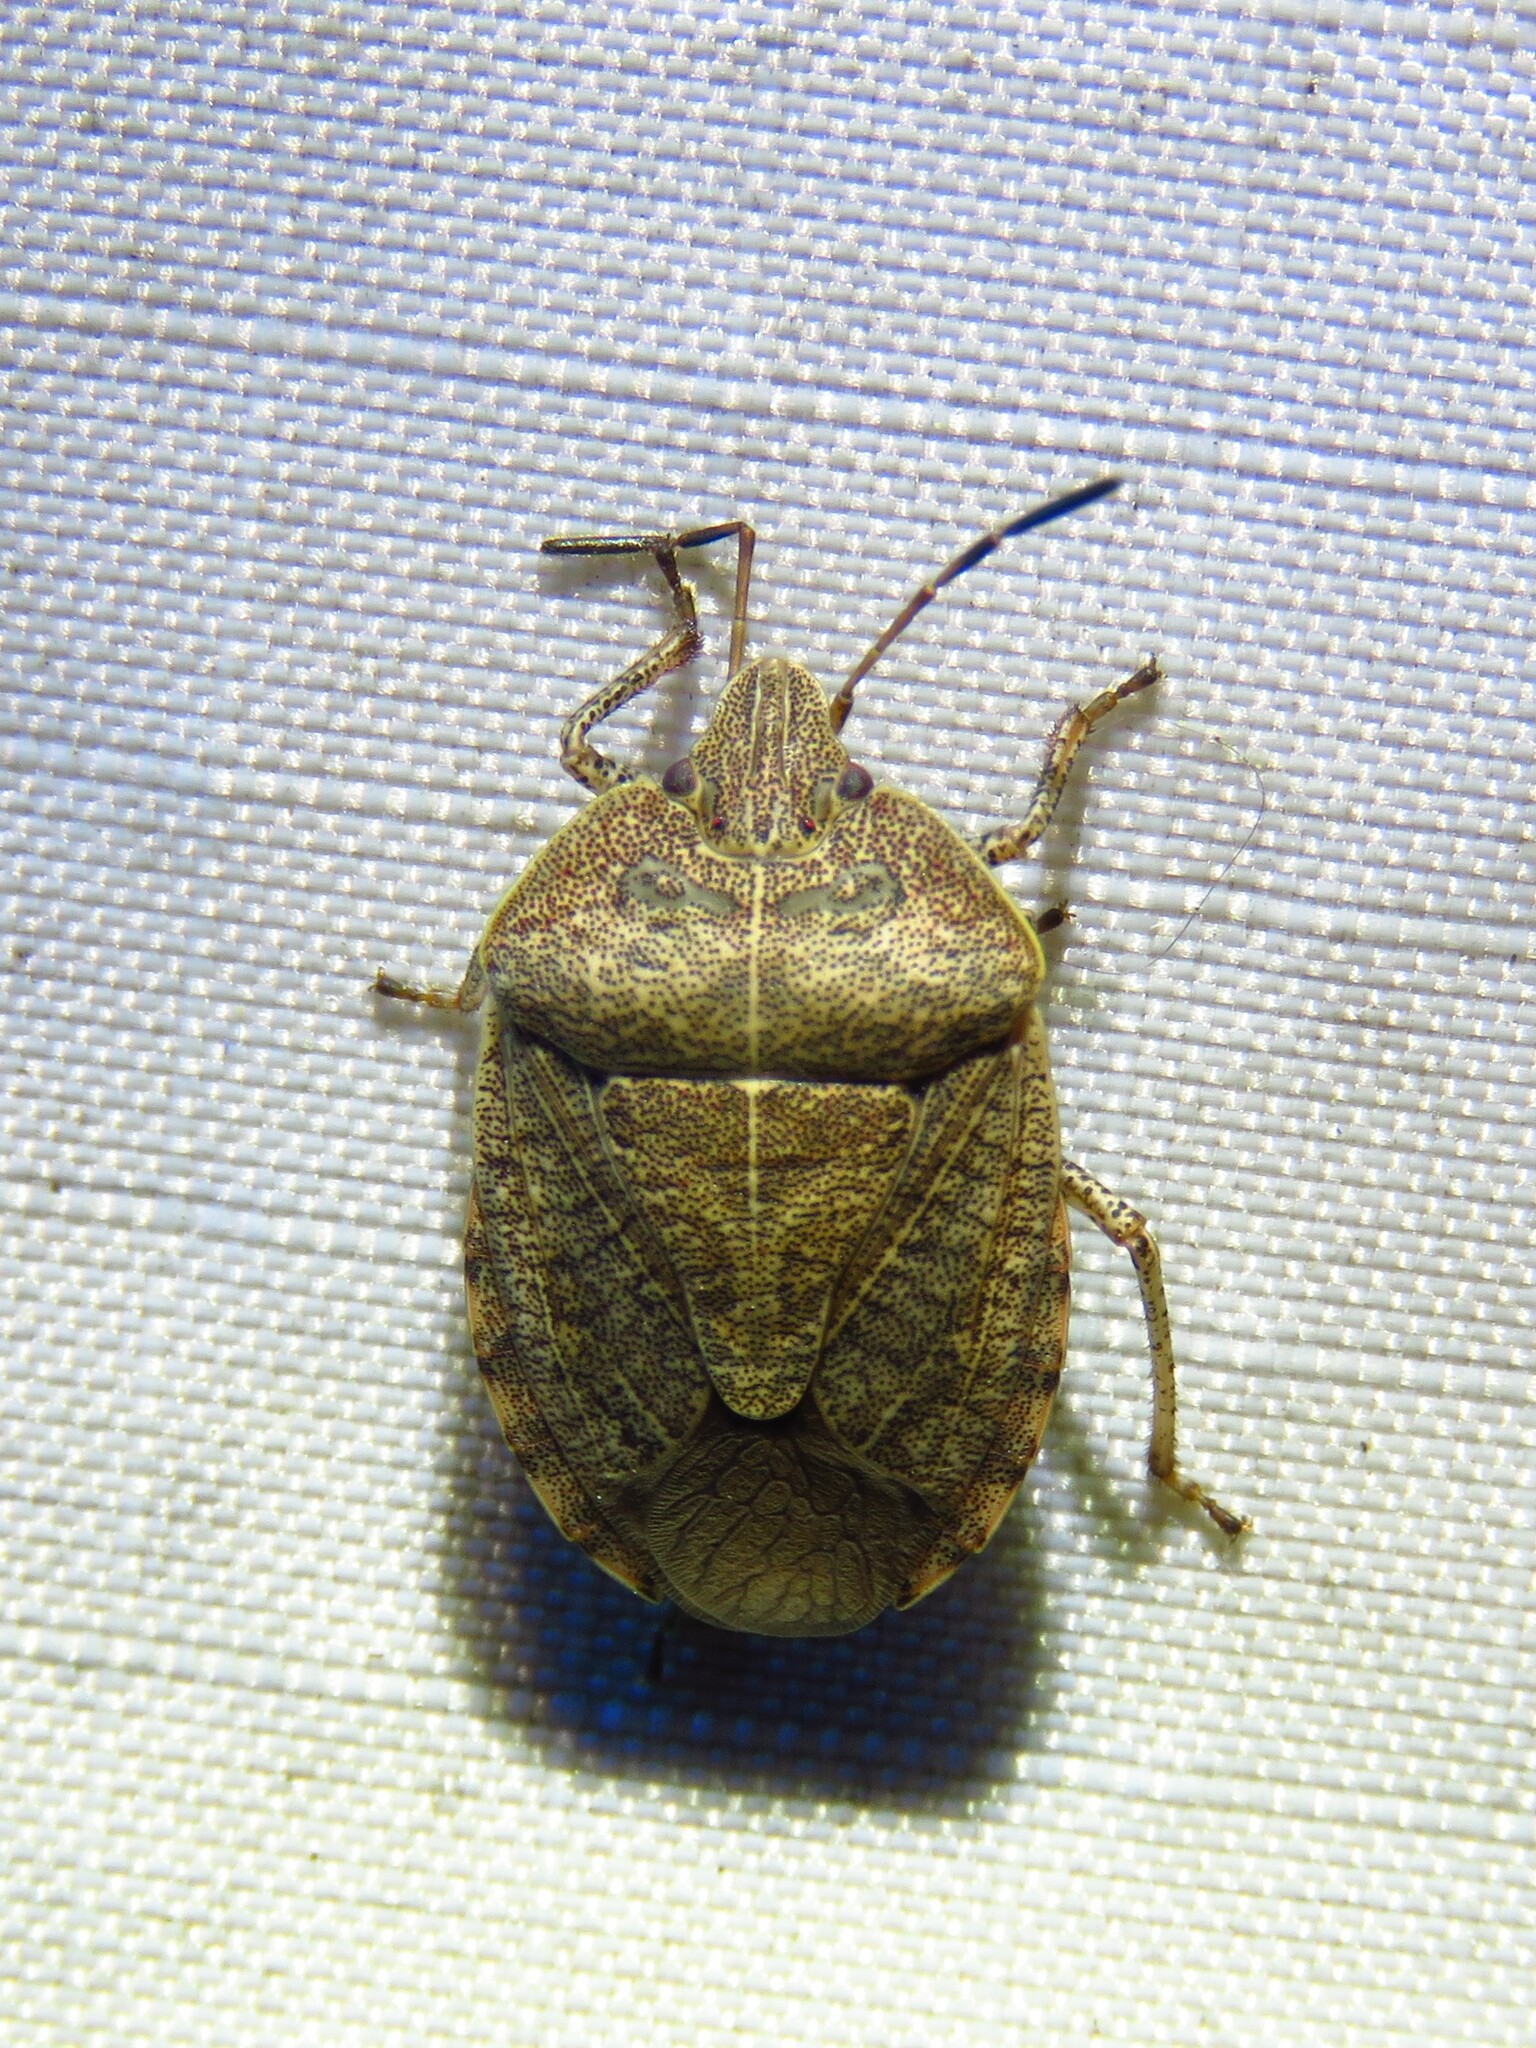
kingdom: Animalia
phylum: Arthropoda
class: Insecta
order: Hemiptera
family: Pentatomidae
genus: Menecles
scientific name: Menecles insertus
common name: Elf shoe stink bug
